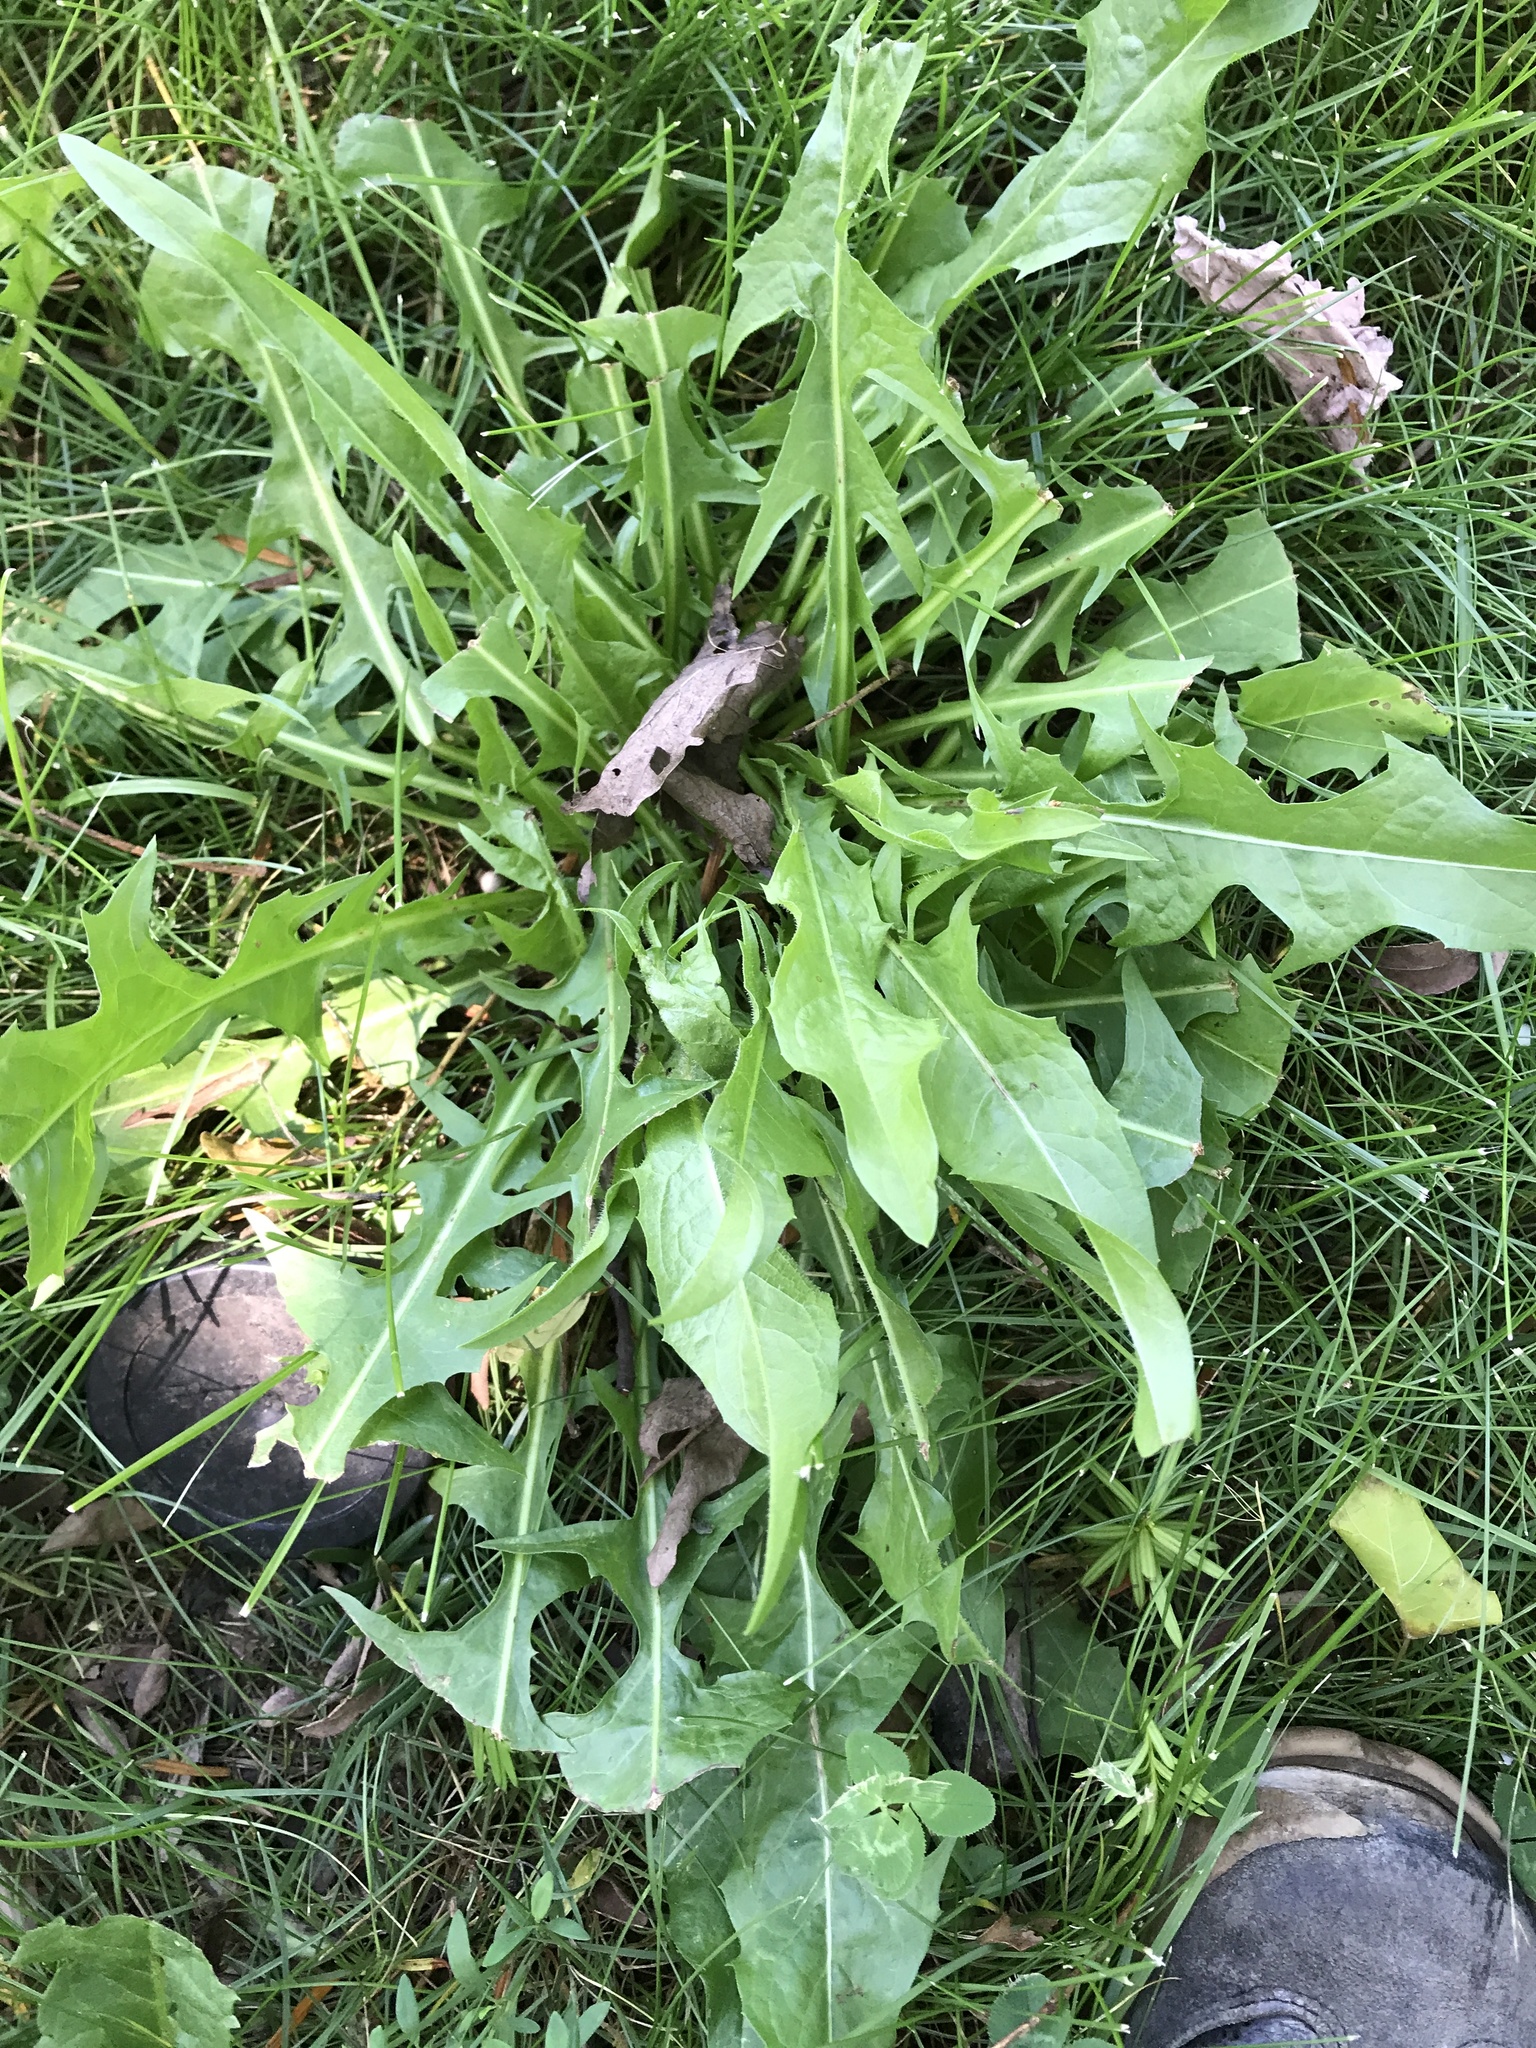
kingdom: Plantae
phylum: Tracheophyta
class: Magnoliopsida
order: Asterales
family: Asteraceae
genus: Taraxacum
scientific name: Taraxacum officinale
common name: Common dandelion
